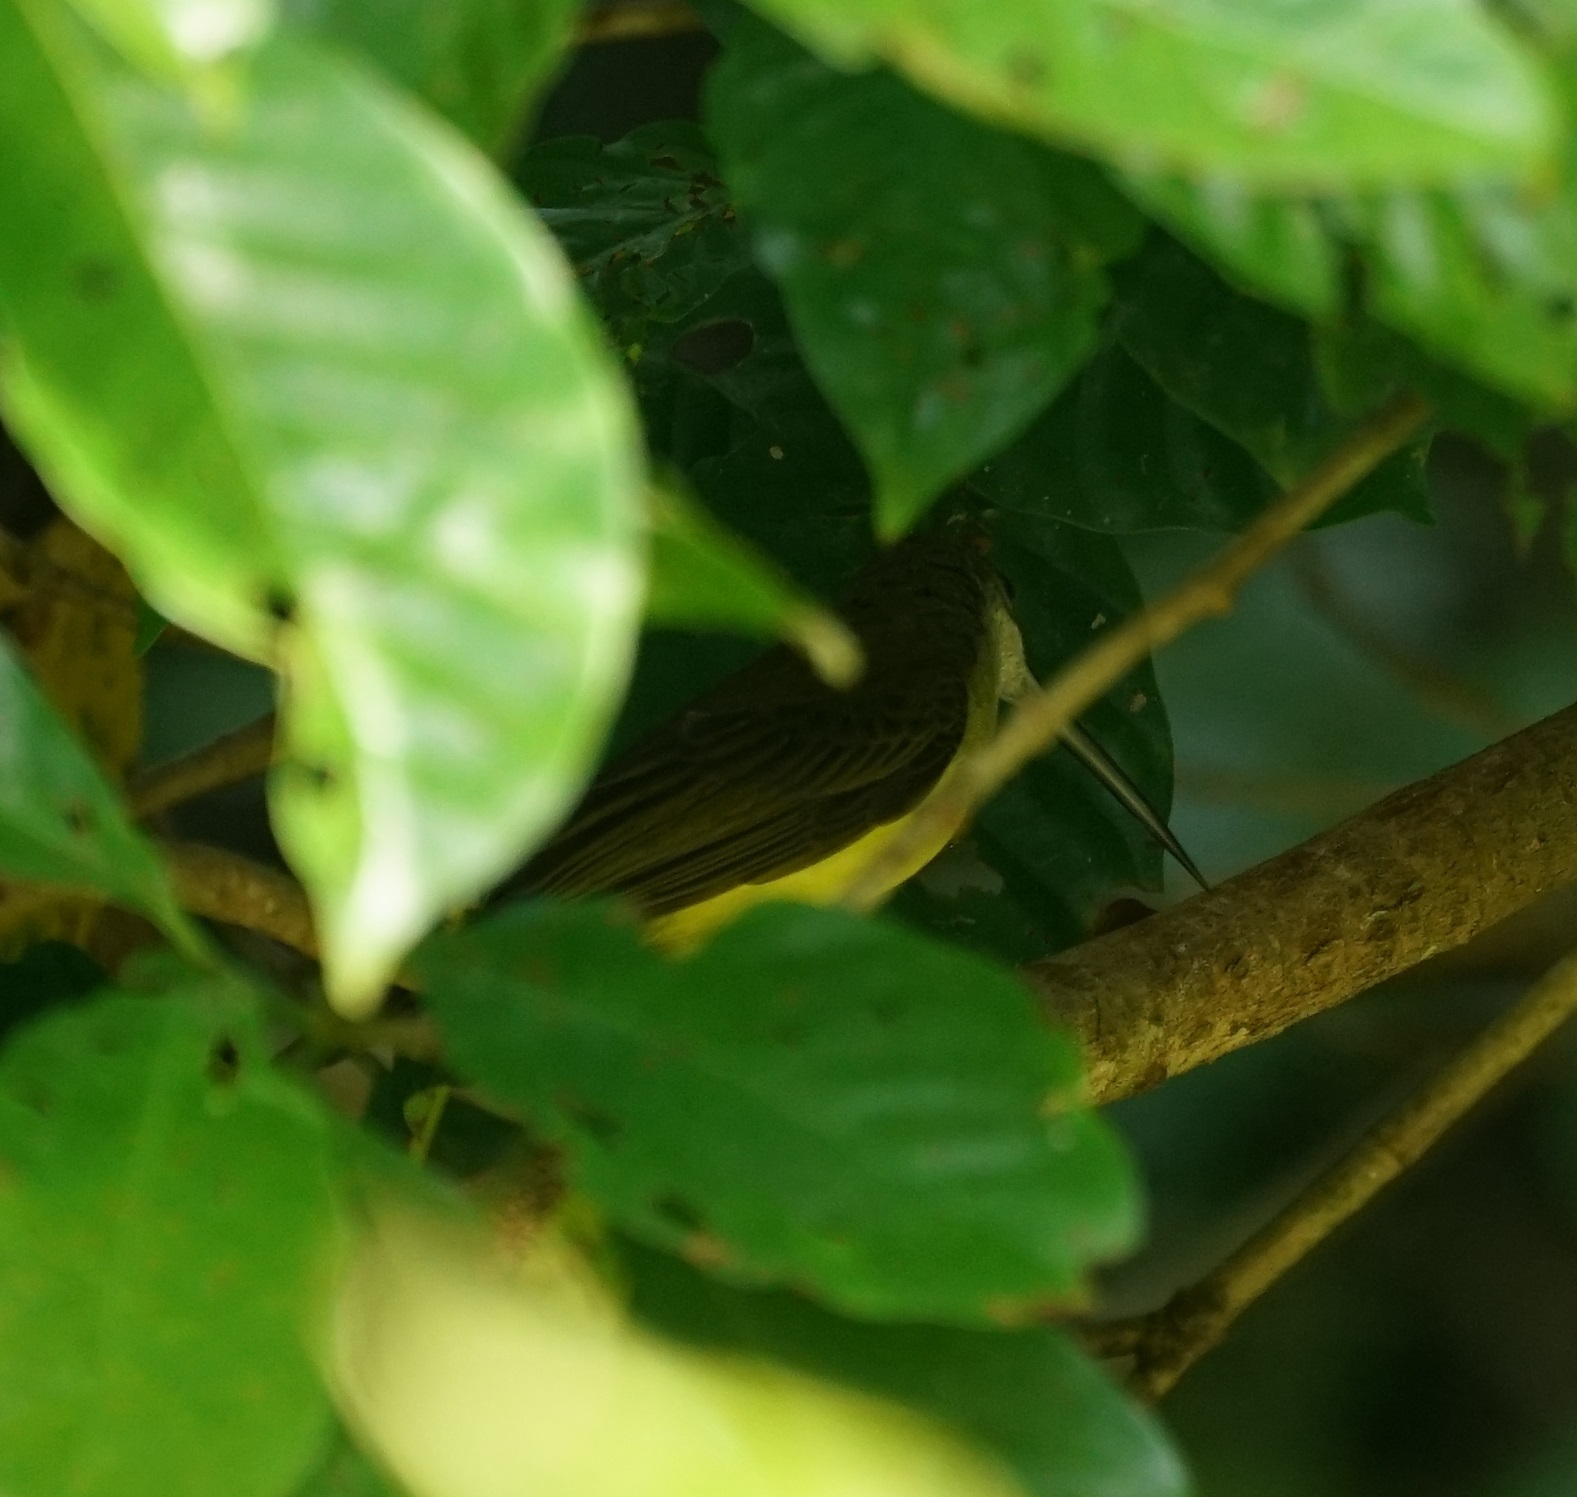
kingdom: Animalia
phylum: Chordata
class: Aves
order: Passeriformes
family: Nectariniidae
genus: Arachnothera
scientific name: Arachnothera longirostra
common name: Little spiderhunter
